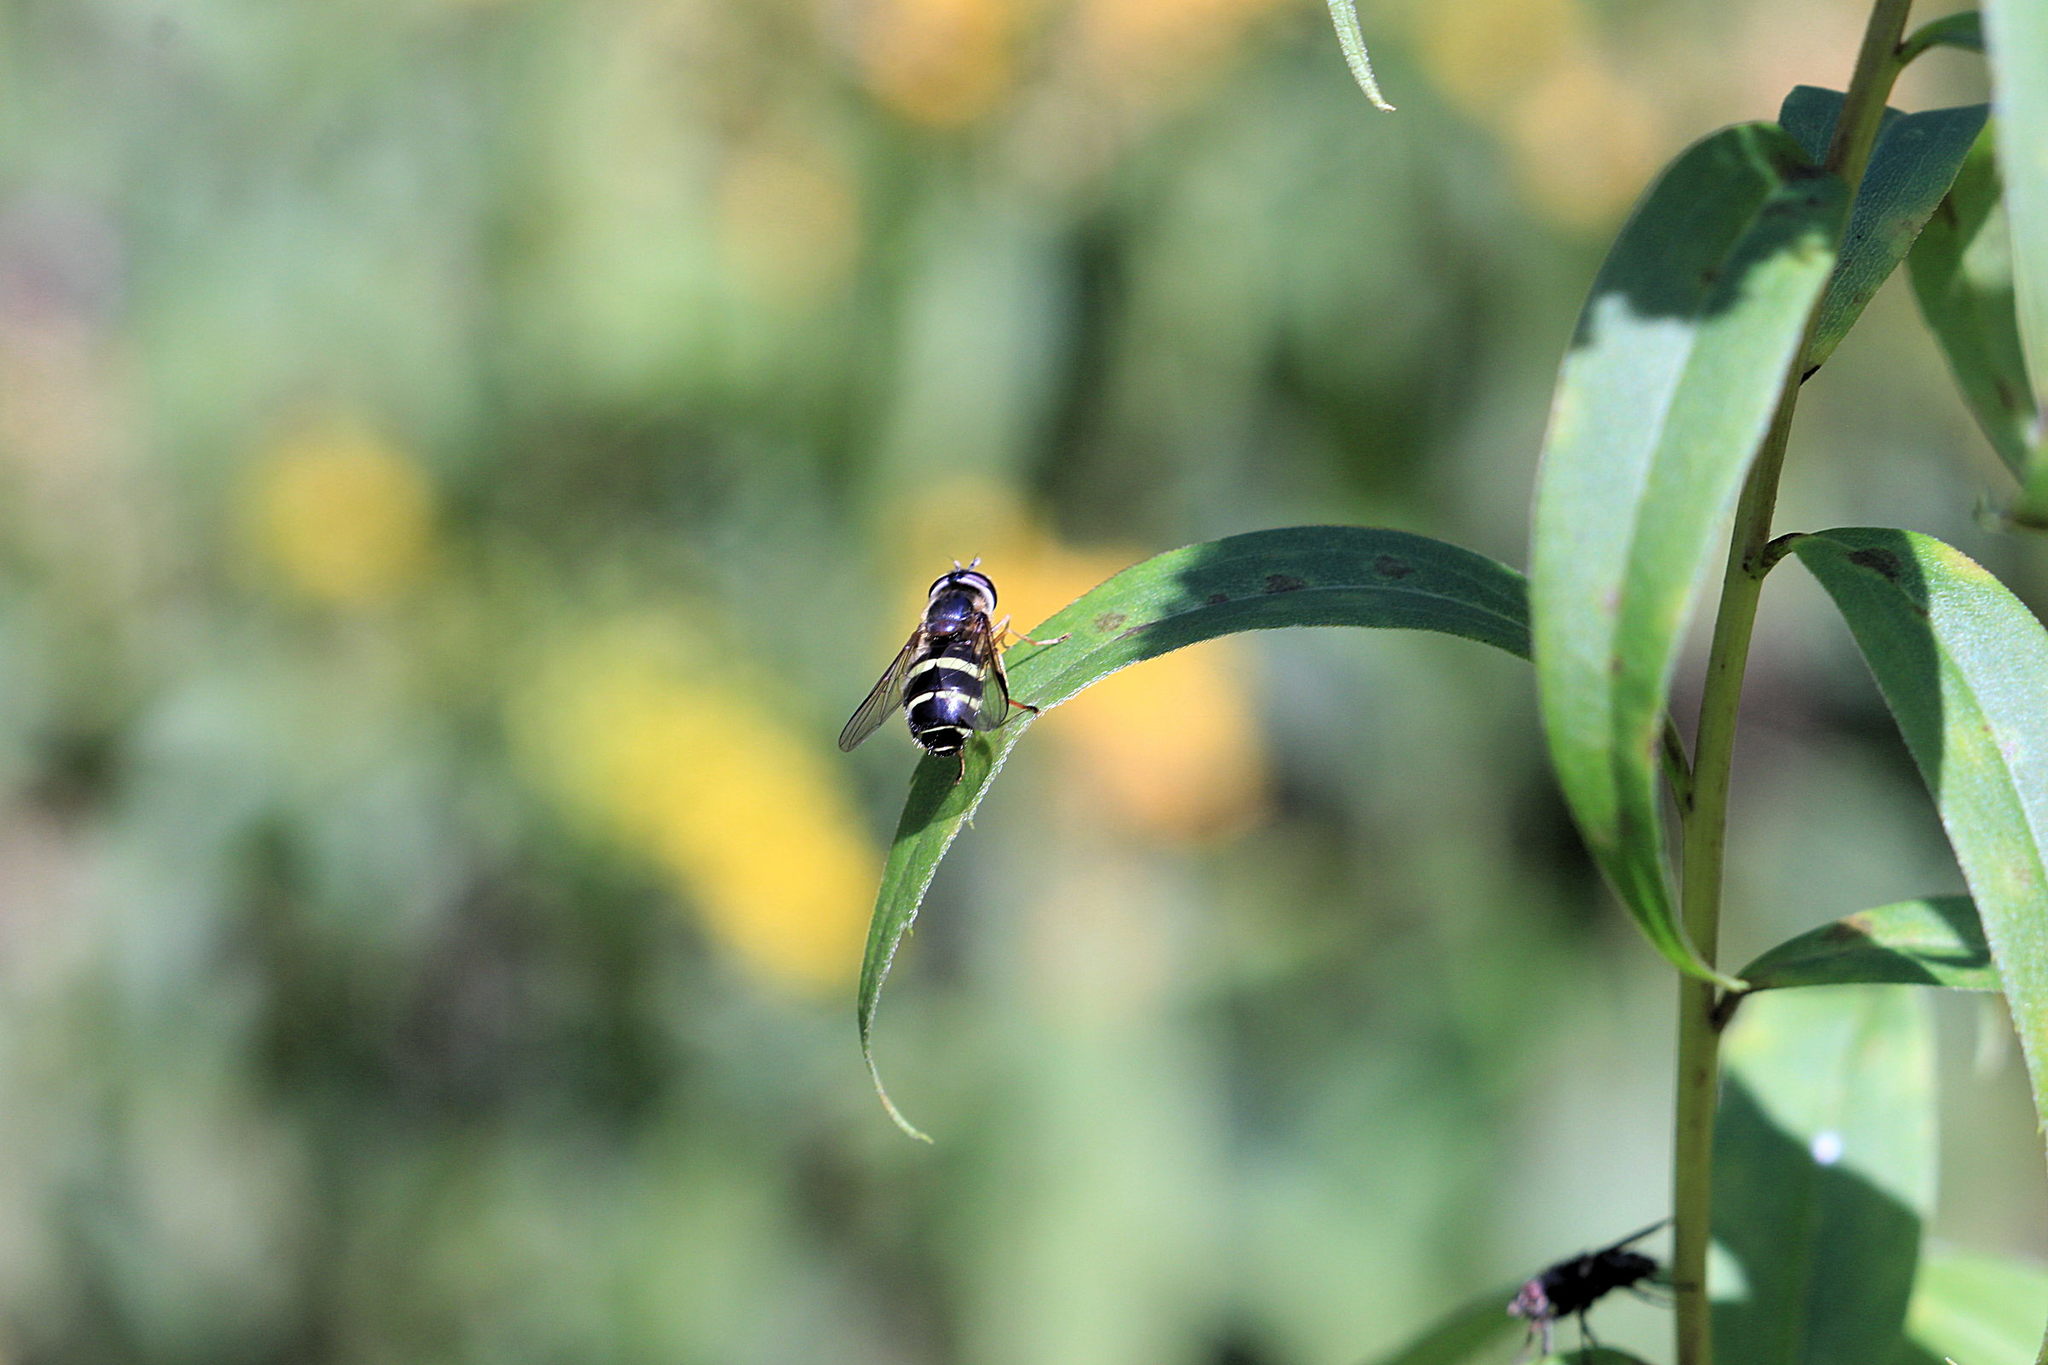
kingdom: Animalia
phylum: Arthropoda
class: Insecta
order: Diptera
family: Syrphidae
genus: Dasysyrphus
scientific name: Dasysyrphus tricinctus
